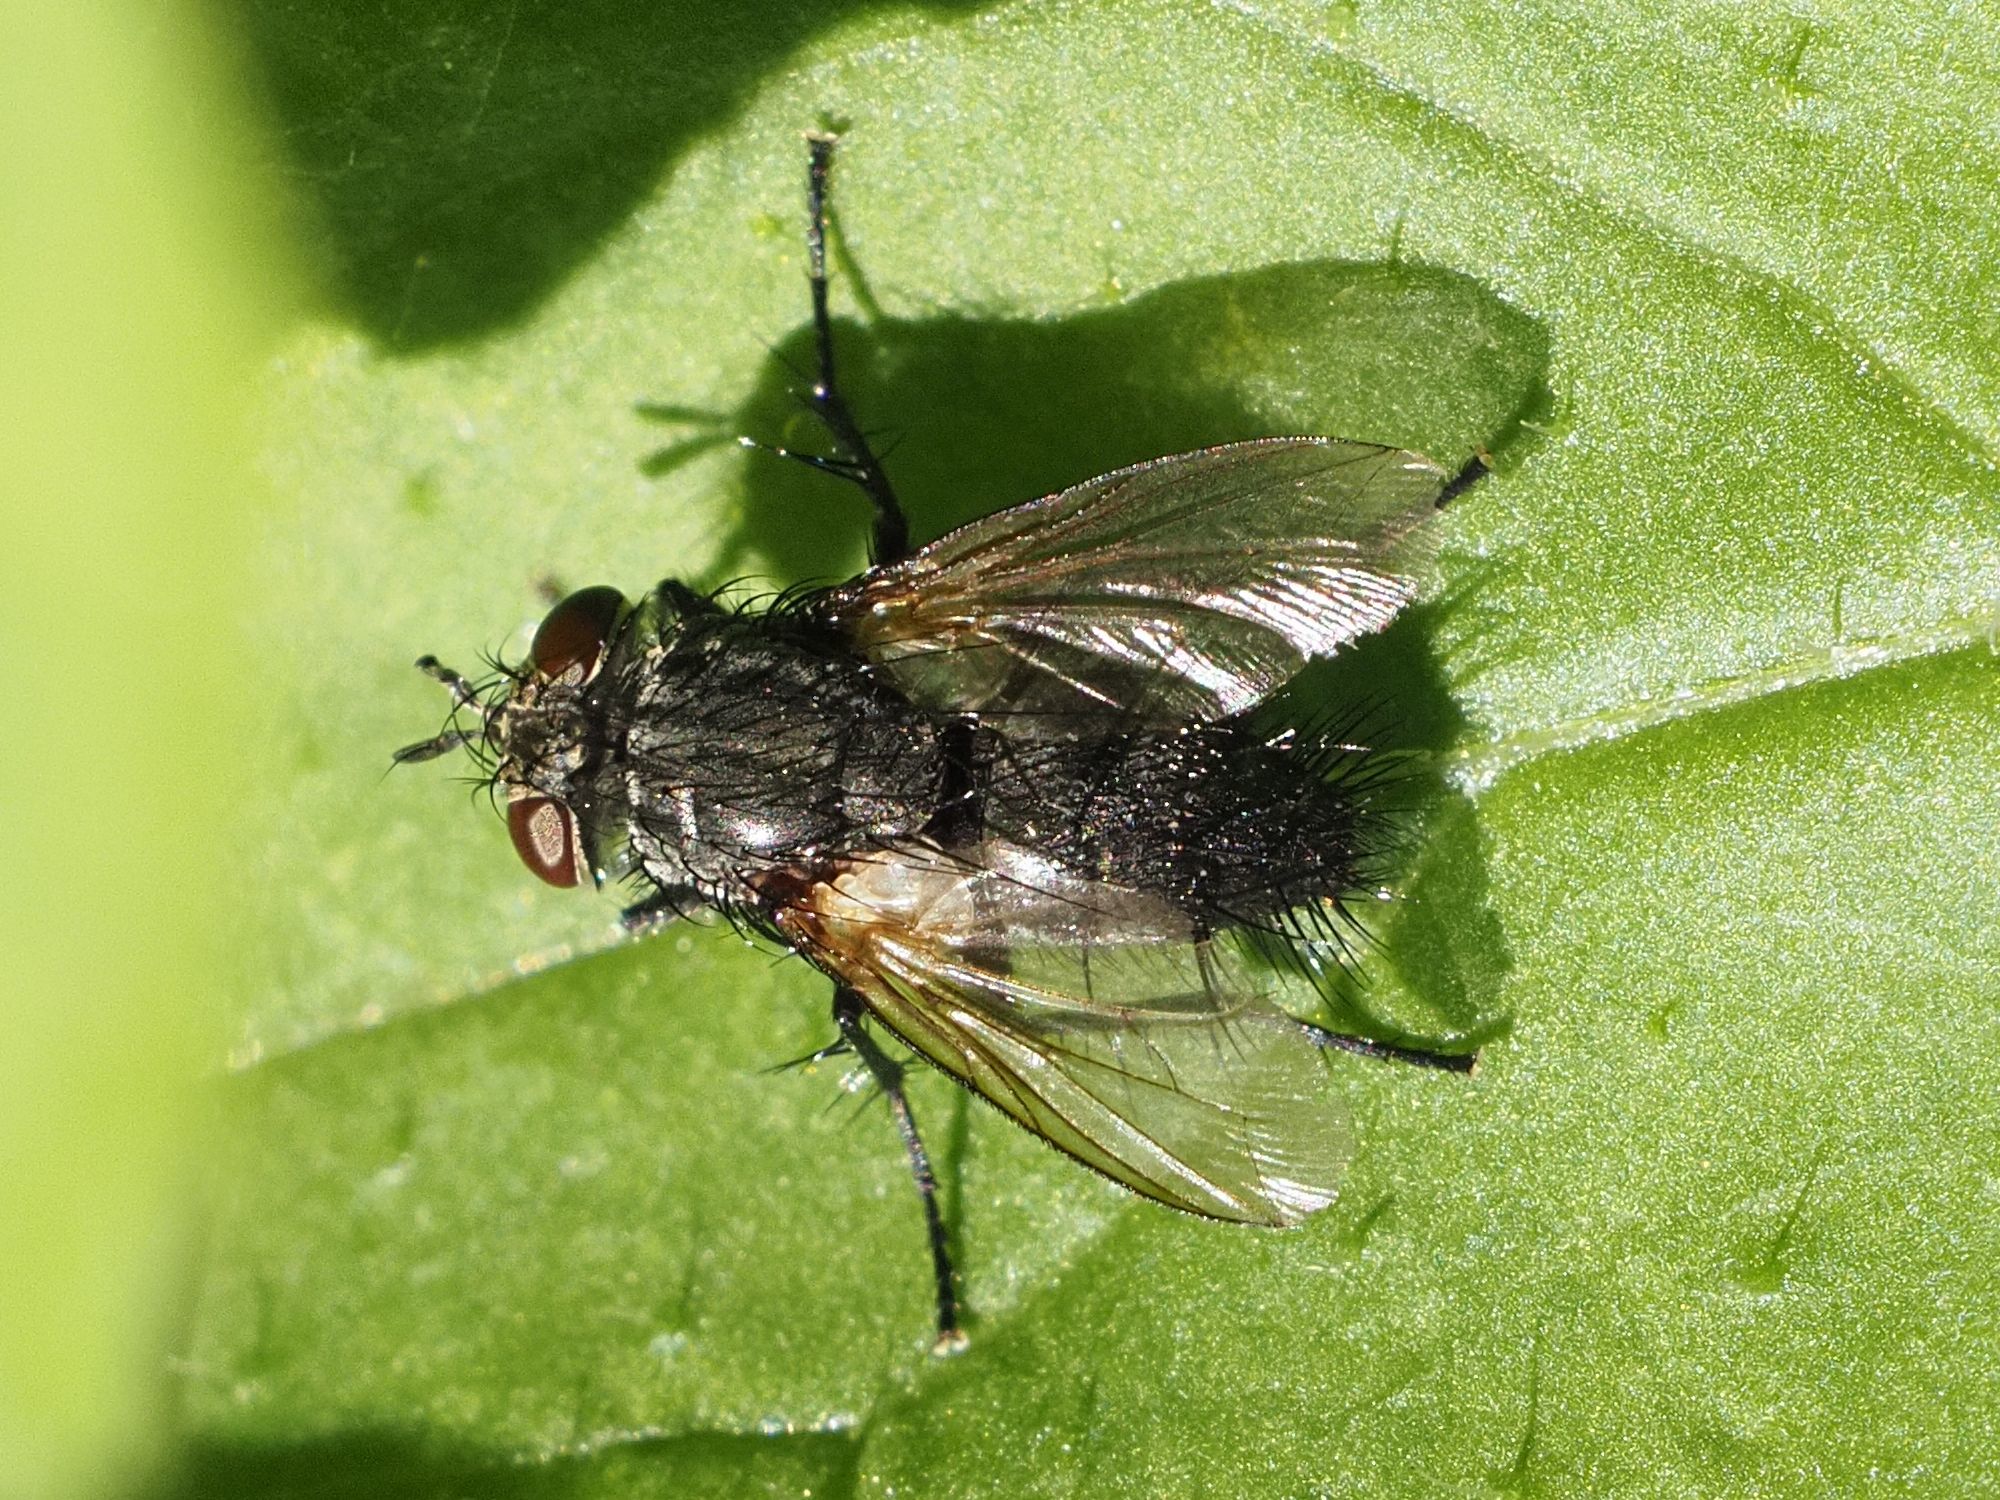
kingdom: Animalia
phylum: Arthropoda
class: Insecta
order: Diptera
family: Tachinidae
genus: Voria
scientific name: Voria ruralis
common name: Parasitic fly
